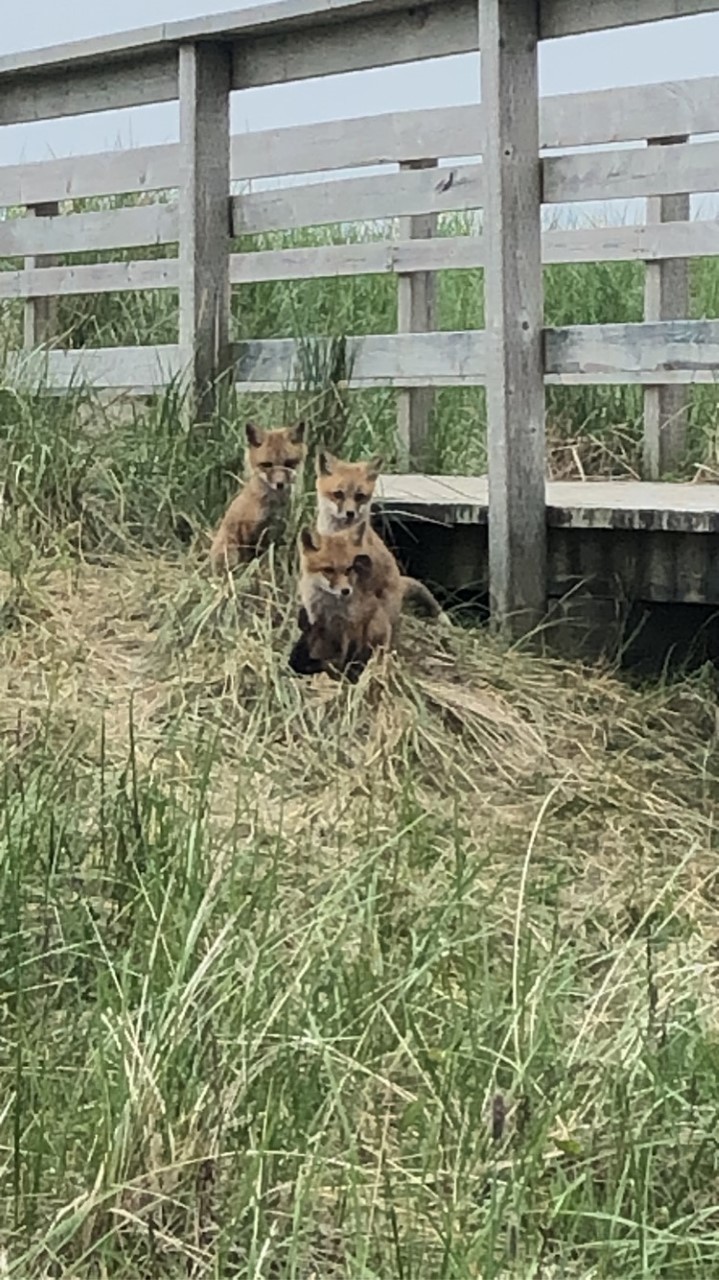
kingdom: Animalia
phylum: Chordata
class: Mammalia
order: Carnivora
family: Canidae
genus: Vulpes
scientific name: Vulpes vulpes
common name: Red fox
